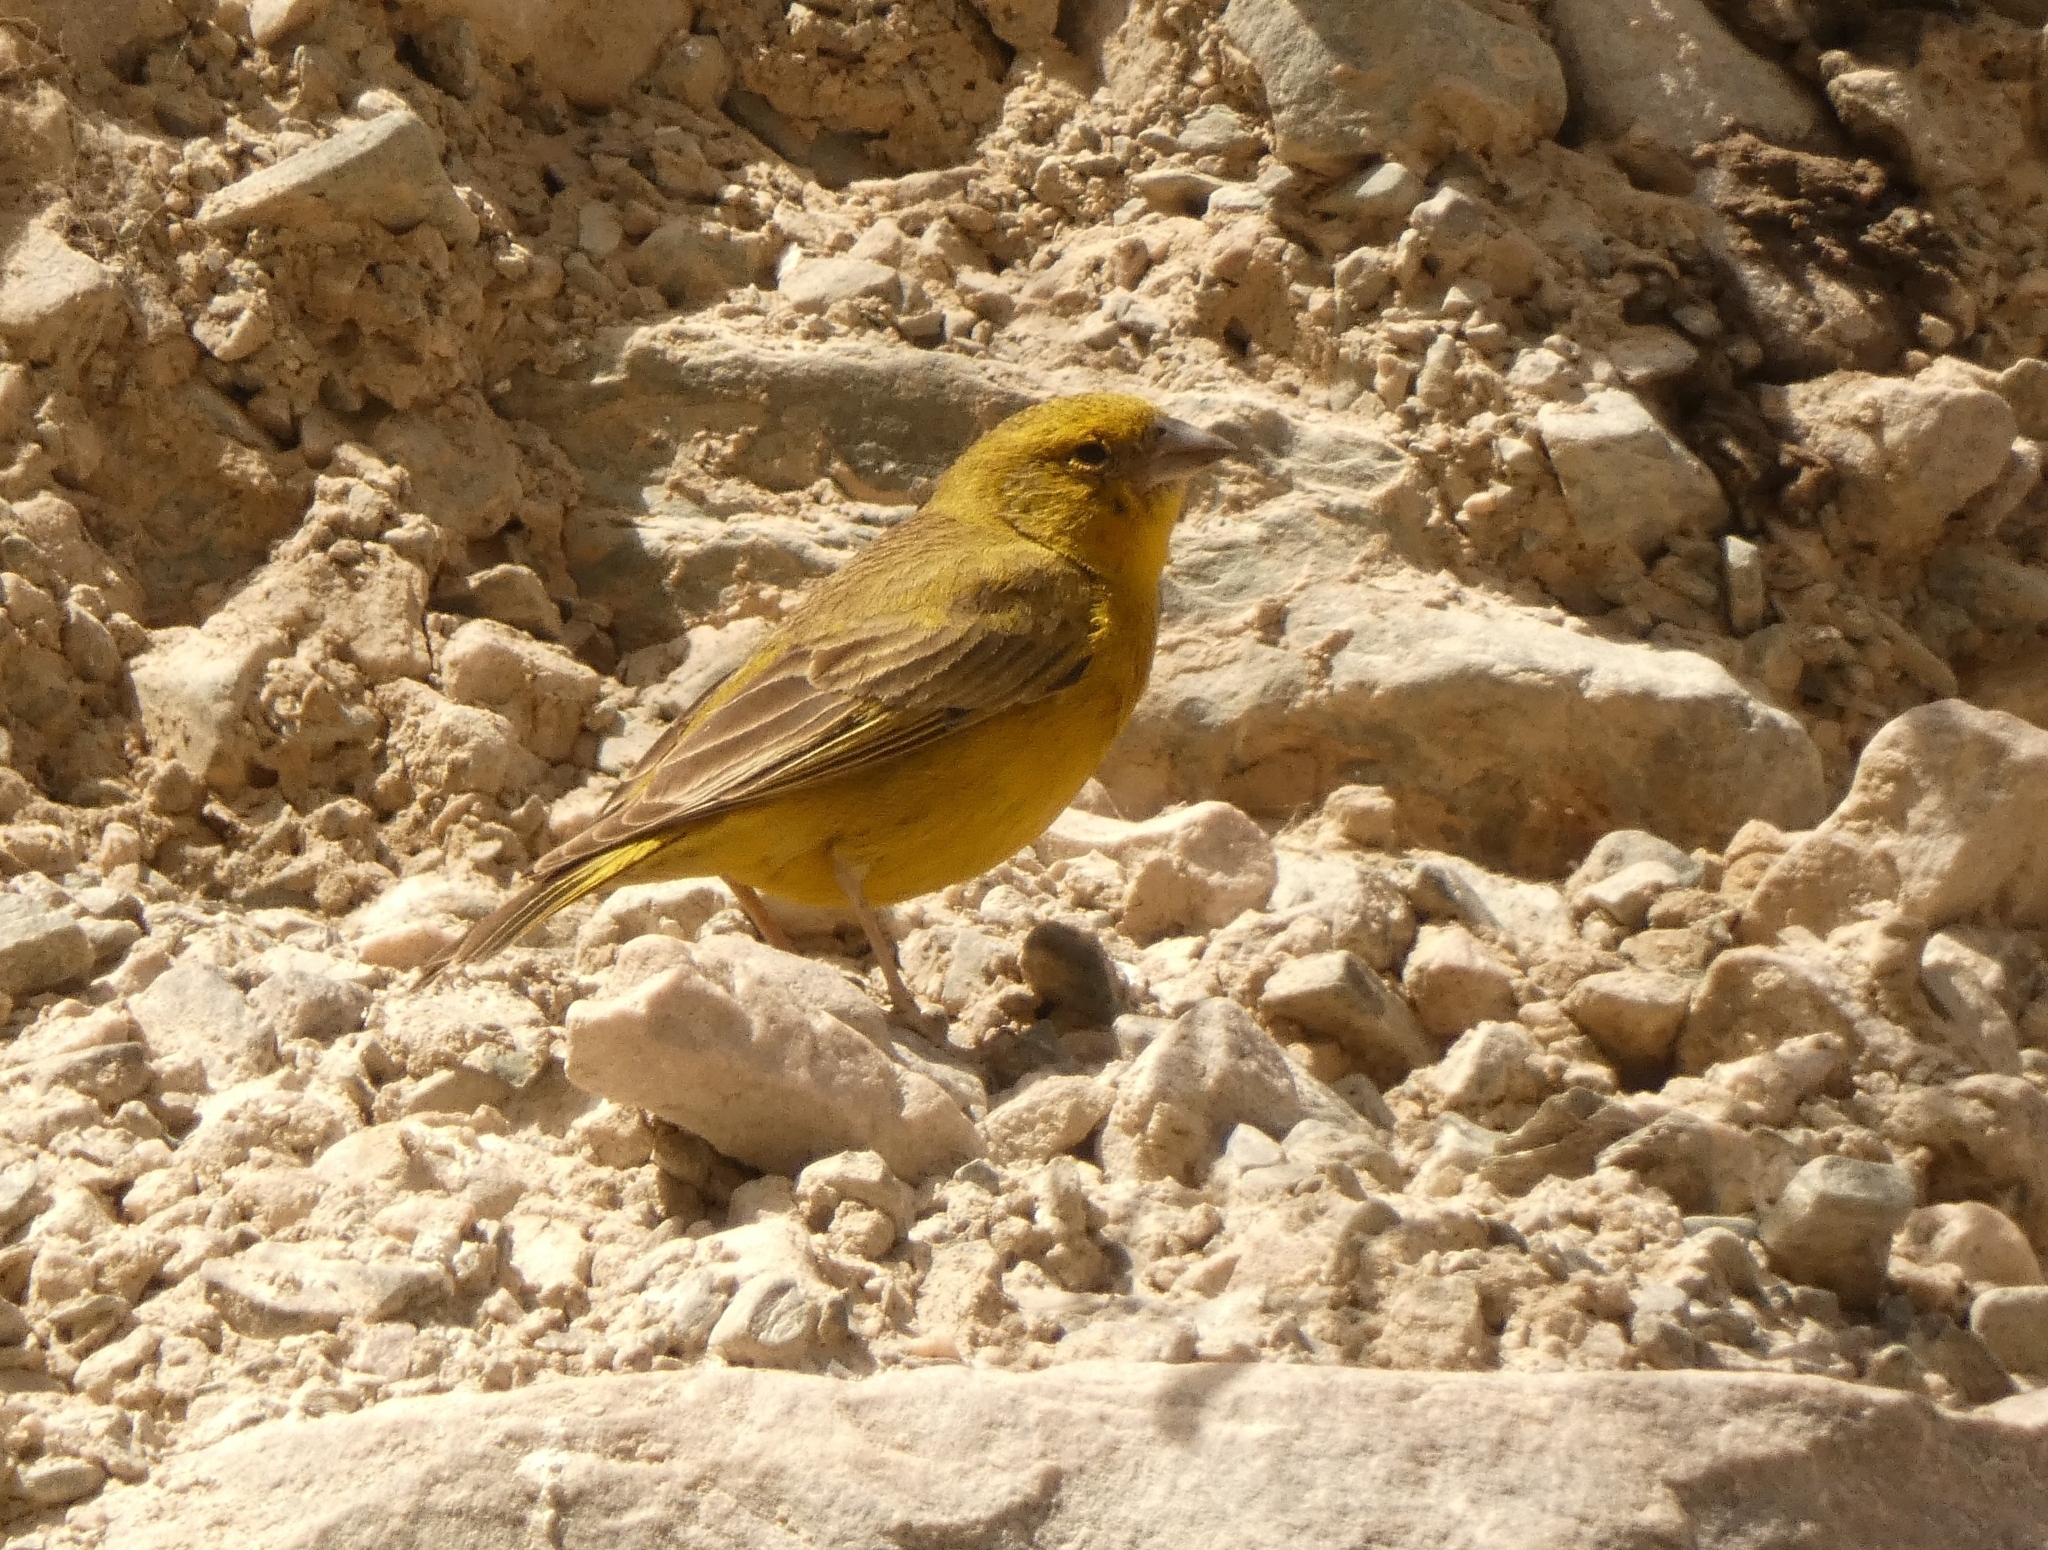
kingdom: Animalia
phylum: Chordata
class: Aves
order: Passeriformes
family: Thraupidae
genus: Sicalis
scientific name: Sicalis olivascens
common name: Greenish yellow finch
